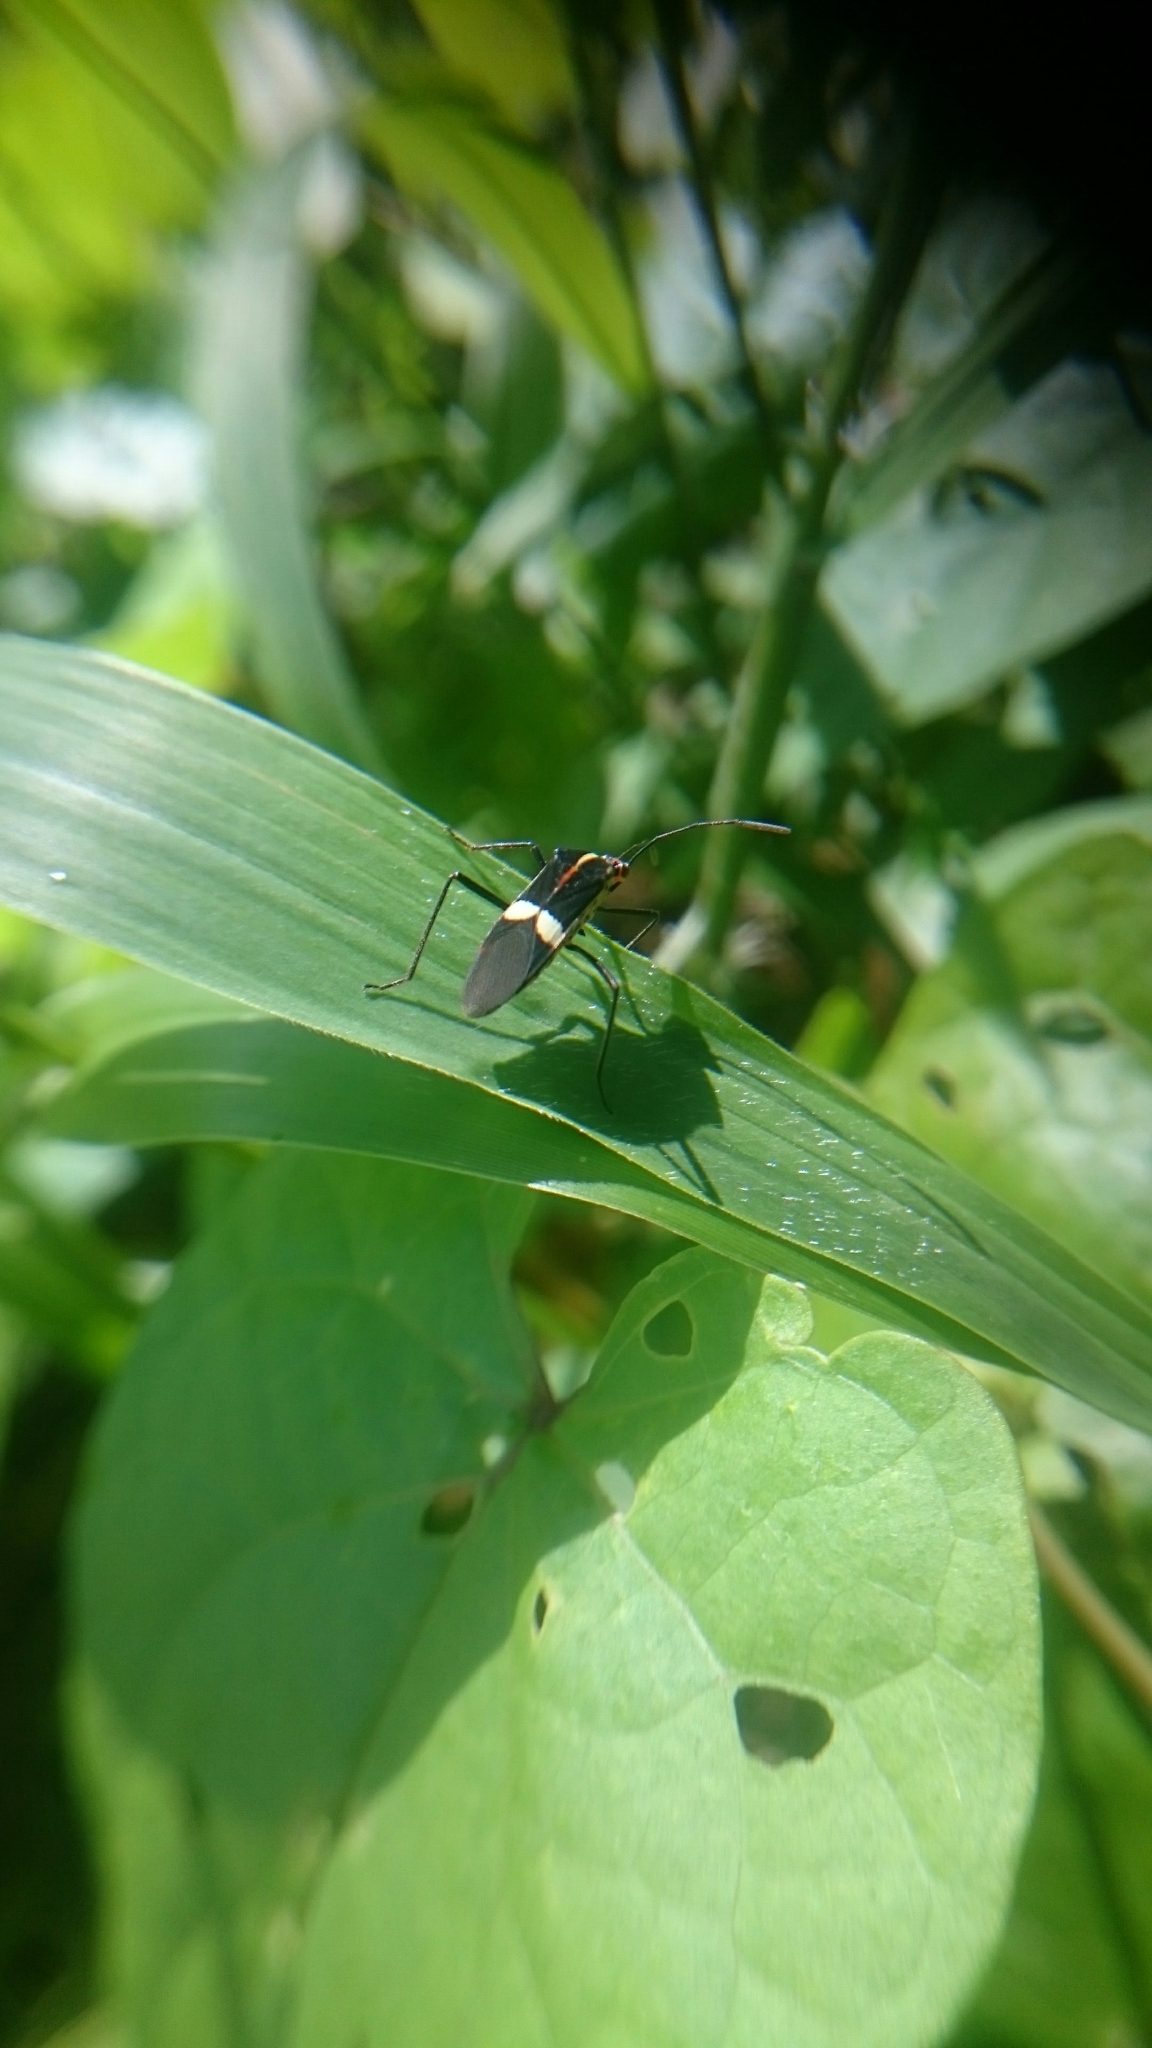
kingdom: Animalia
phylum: Arthropoda
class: Insecta
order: Hemiptera
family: Coreidae
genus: Hypselonotus
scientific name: Hypselonotus interruptus
